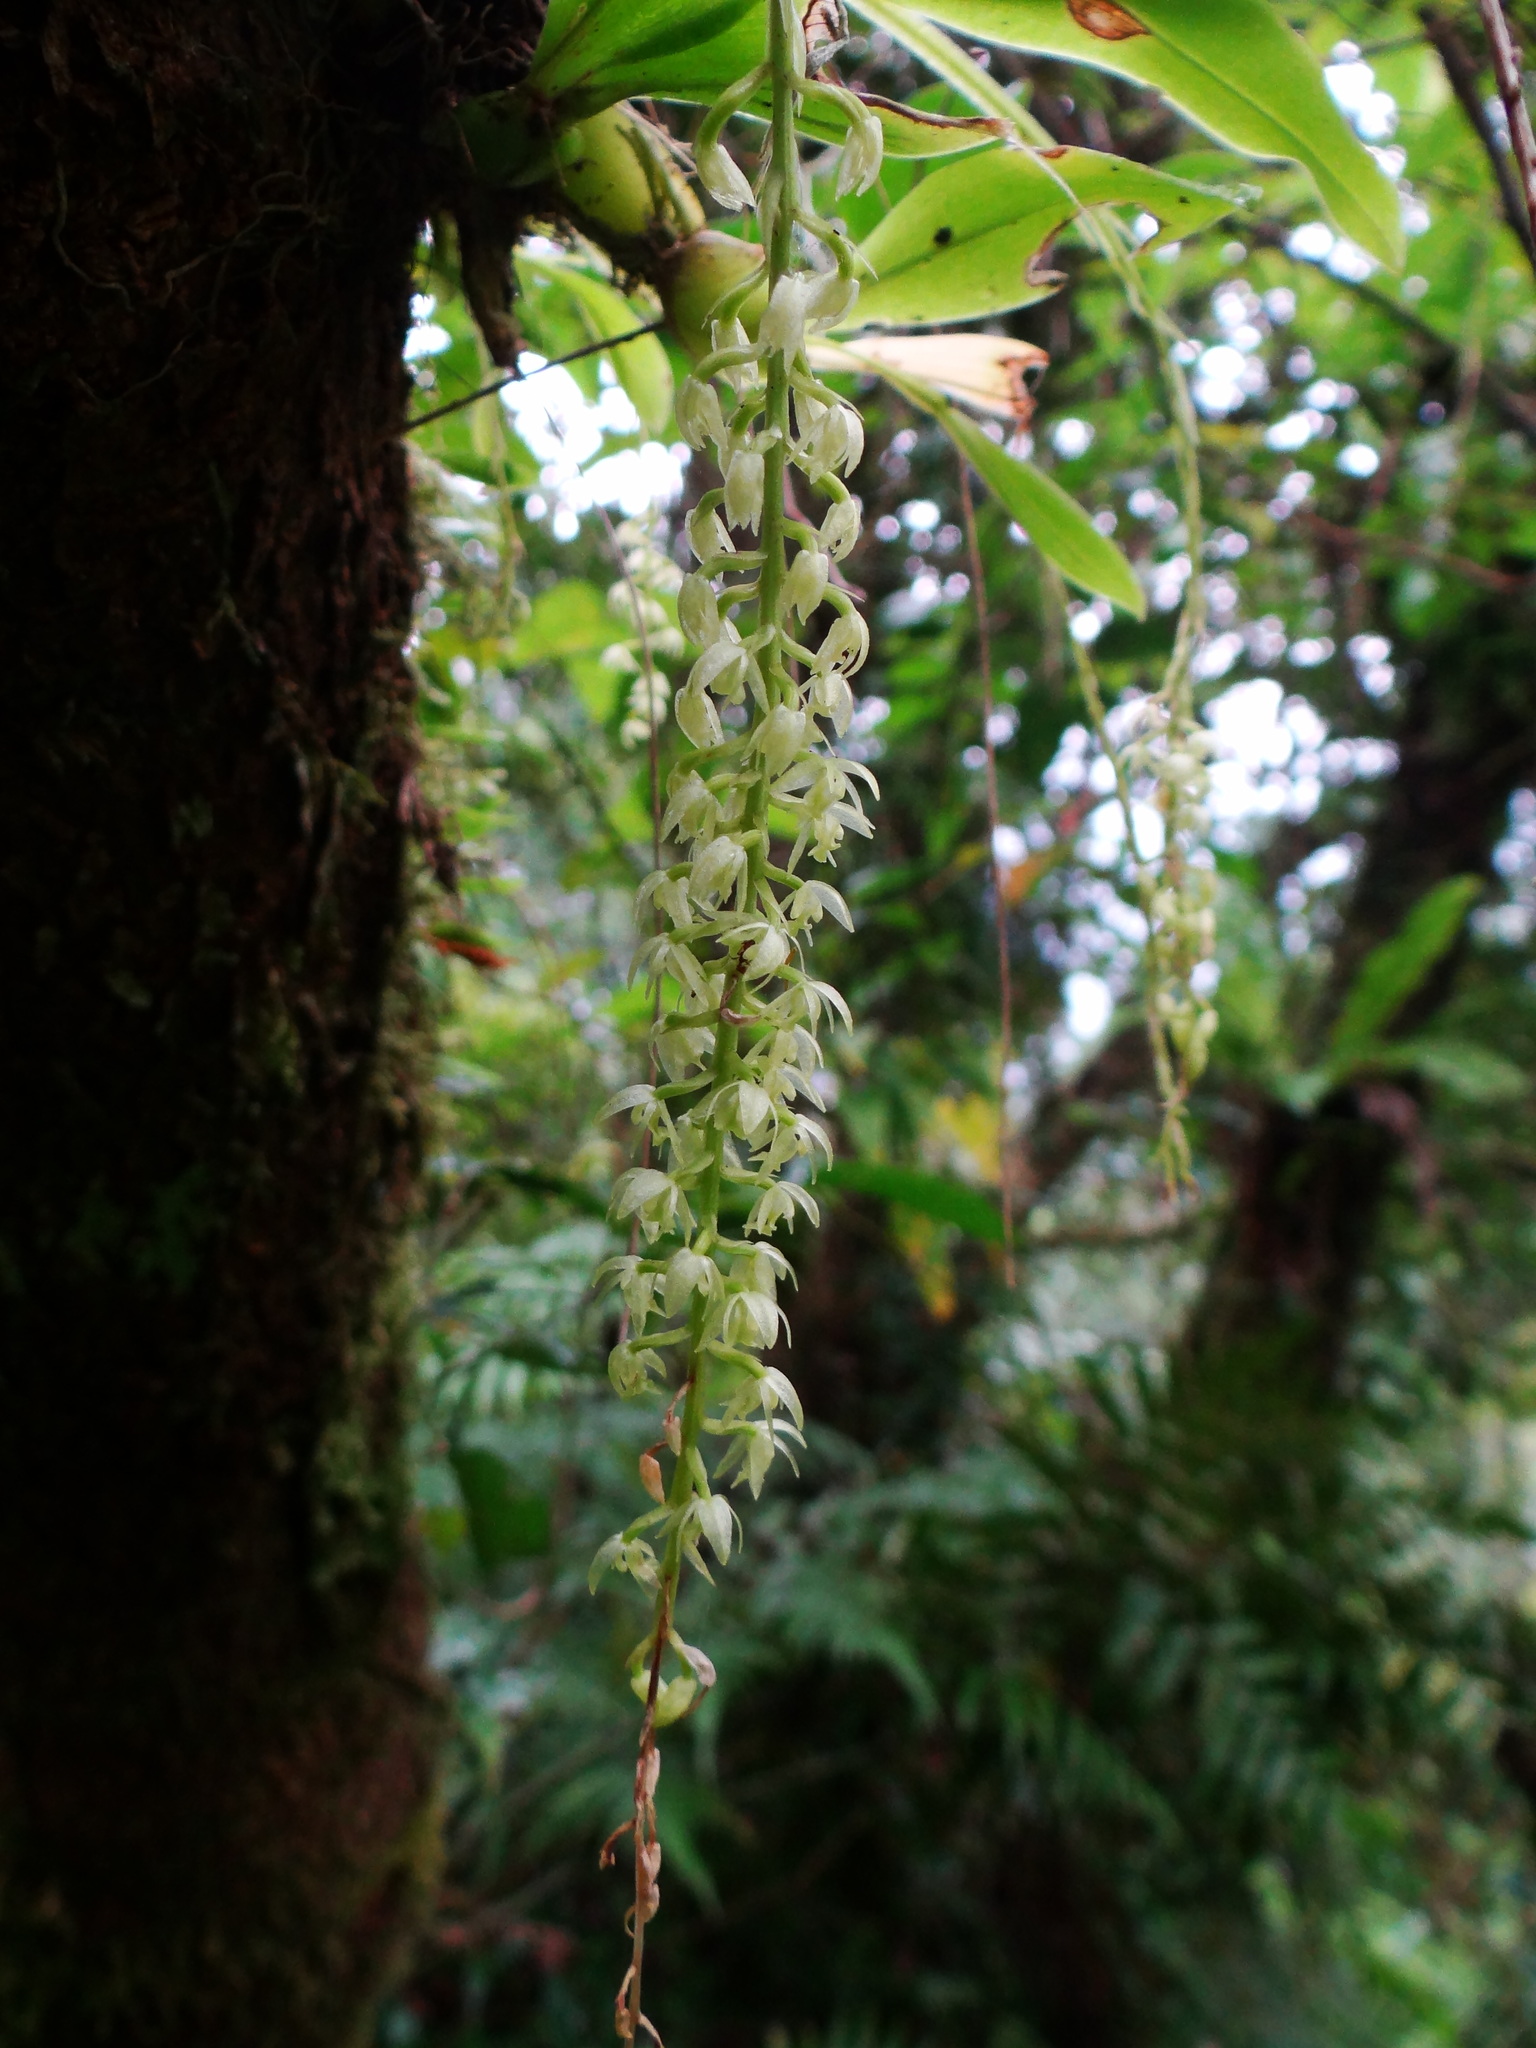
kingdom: Plantae
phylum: Tracheophyta
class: Liliopsida
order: Asparagales
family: Orchidaceae
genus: Liparis
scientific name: Liparis elliptica
